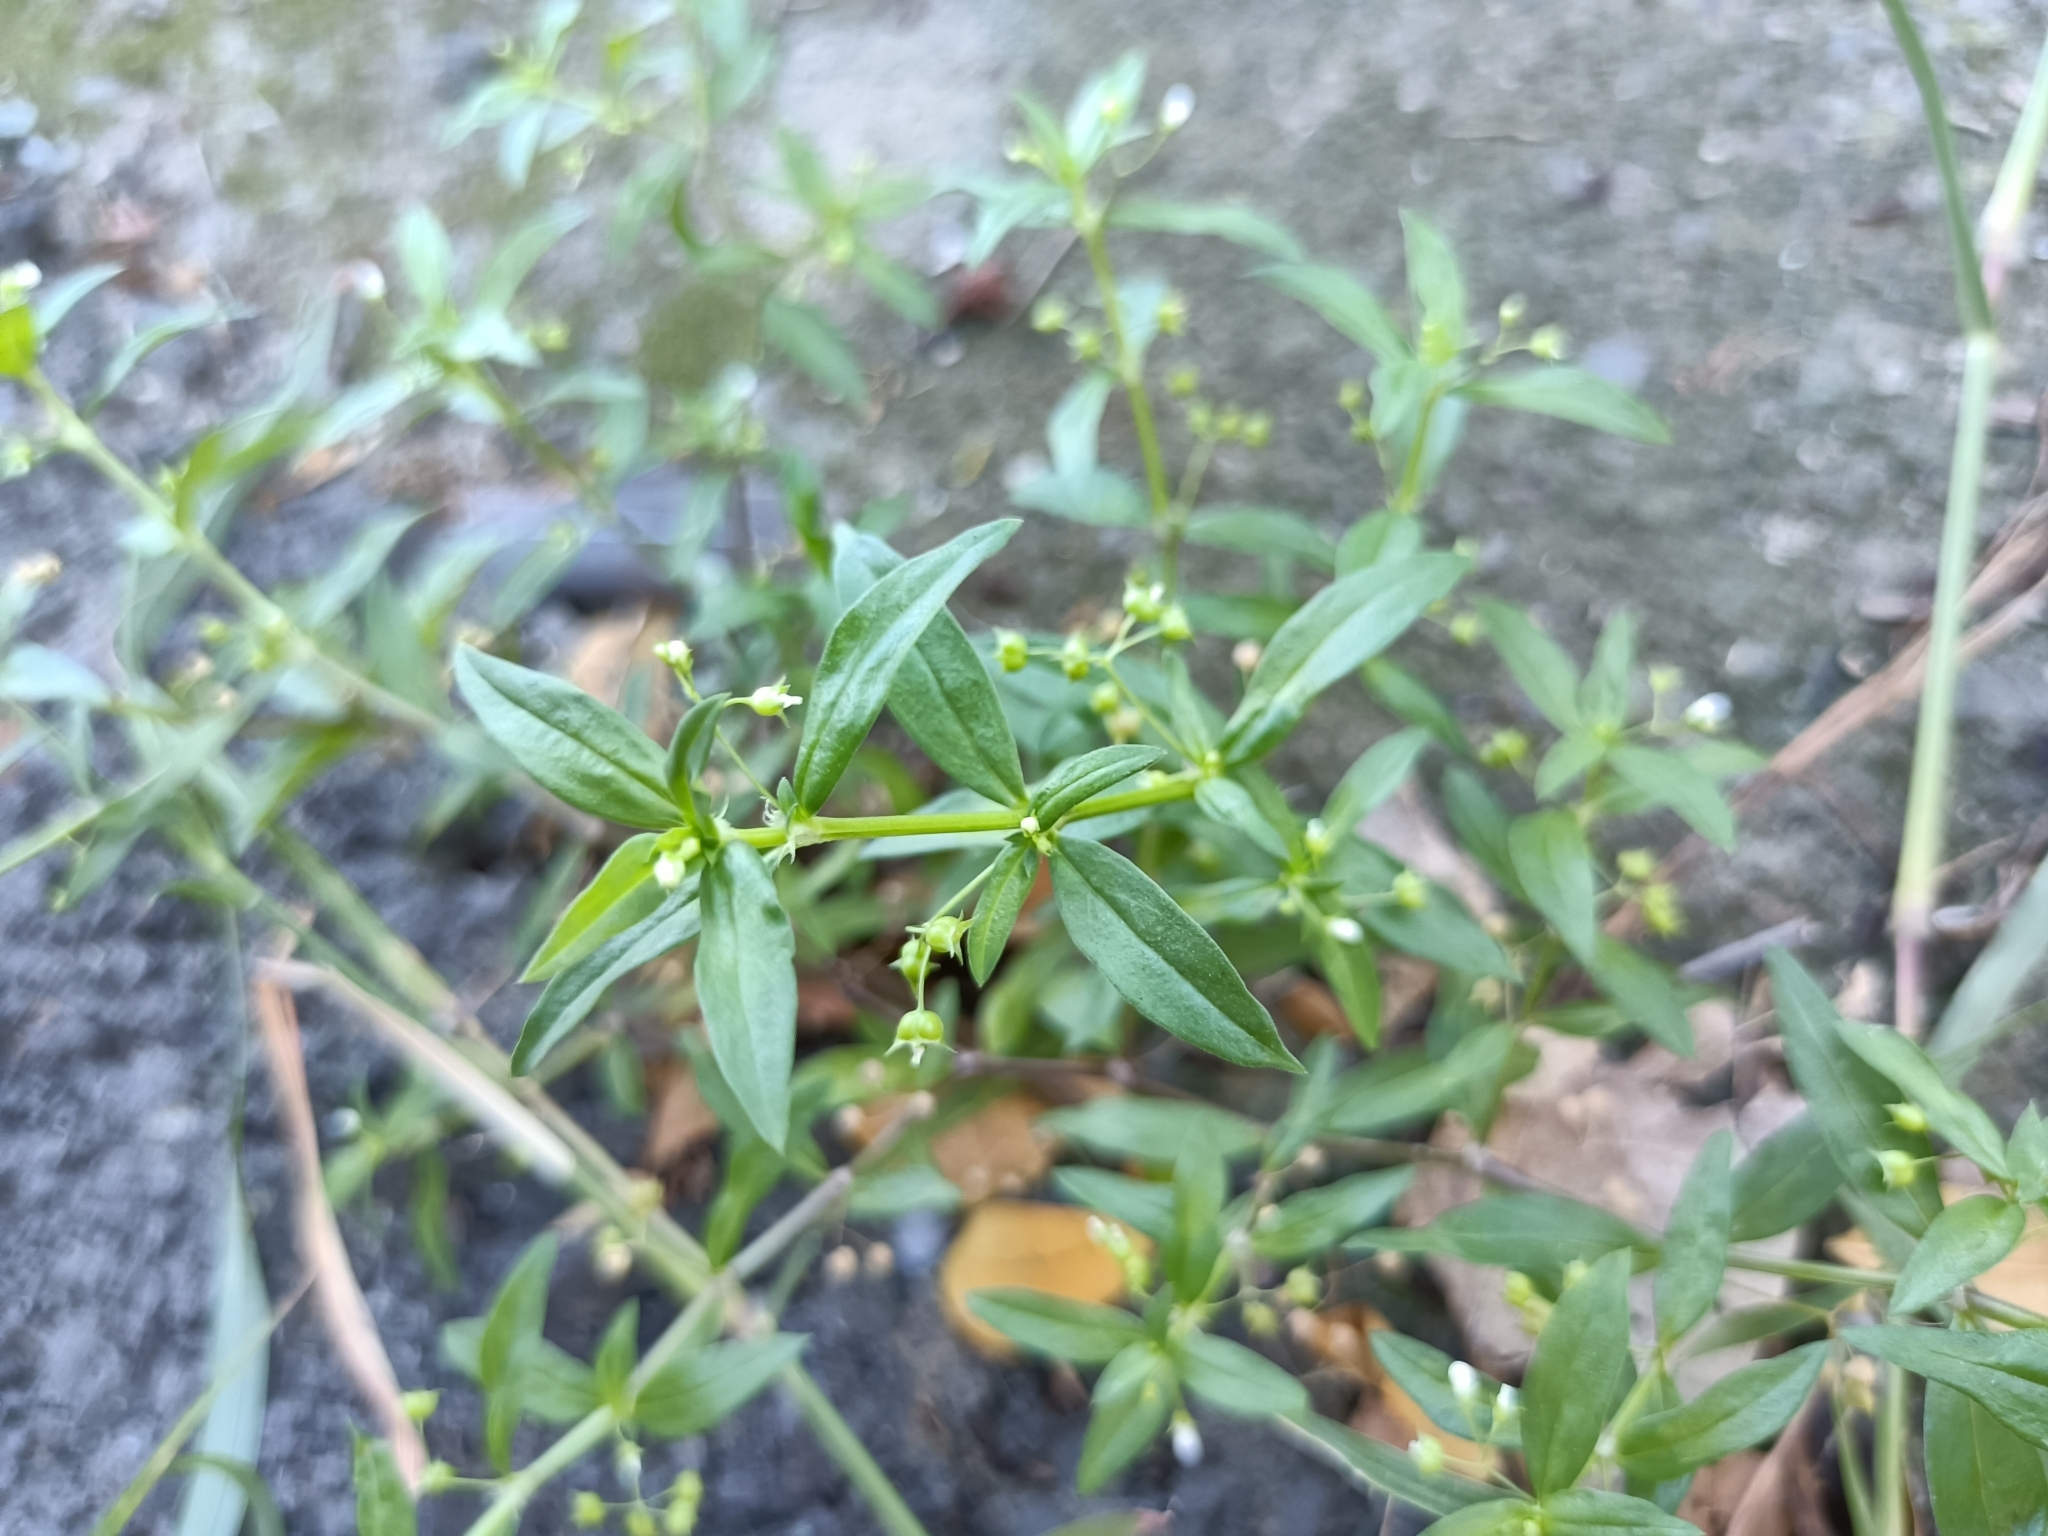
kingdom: Plantae
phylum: Tracheophyta
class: Magnoliopsida
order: Gentianales
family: Rubiaceae
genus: Oldenlandia
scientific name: Oldenlandia corymbosa
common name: Flat-top mille graines
